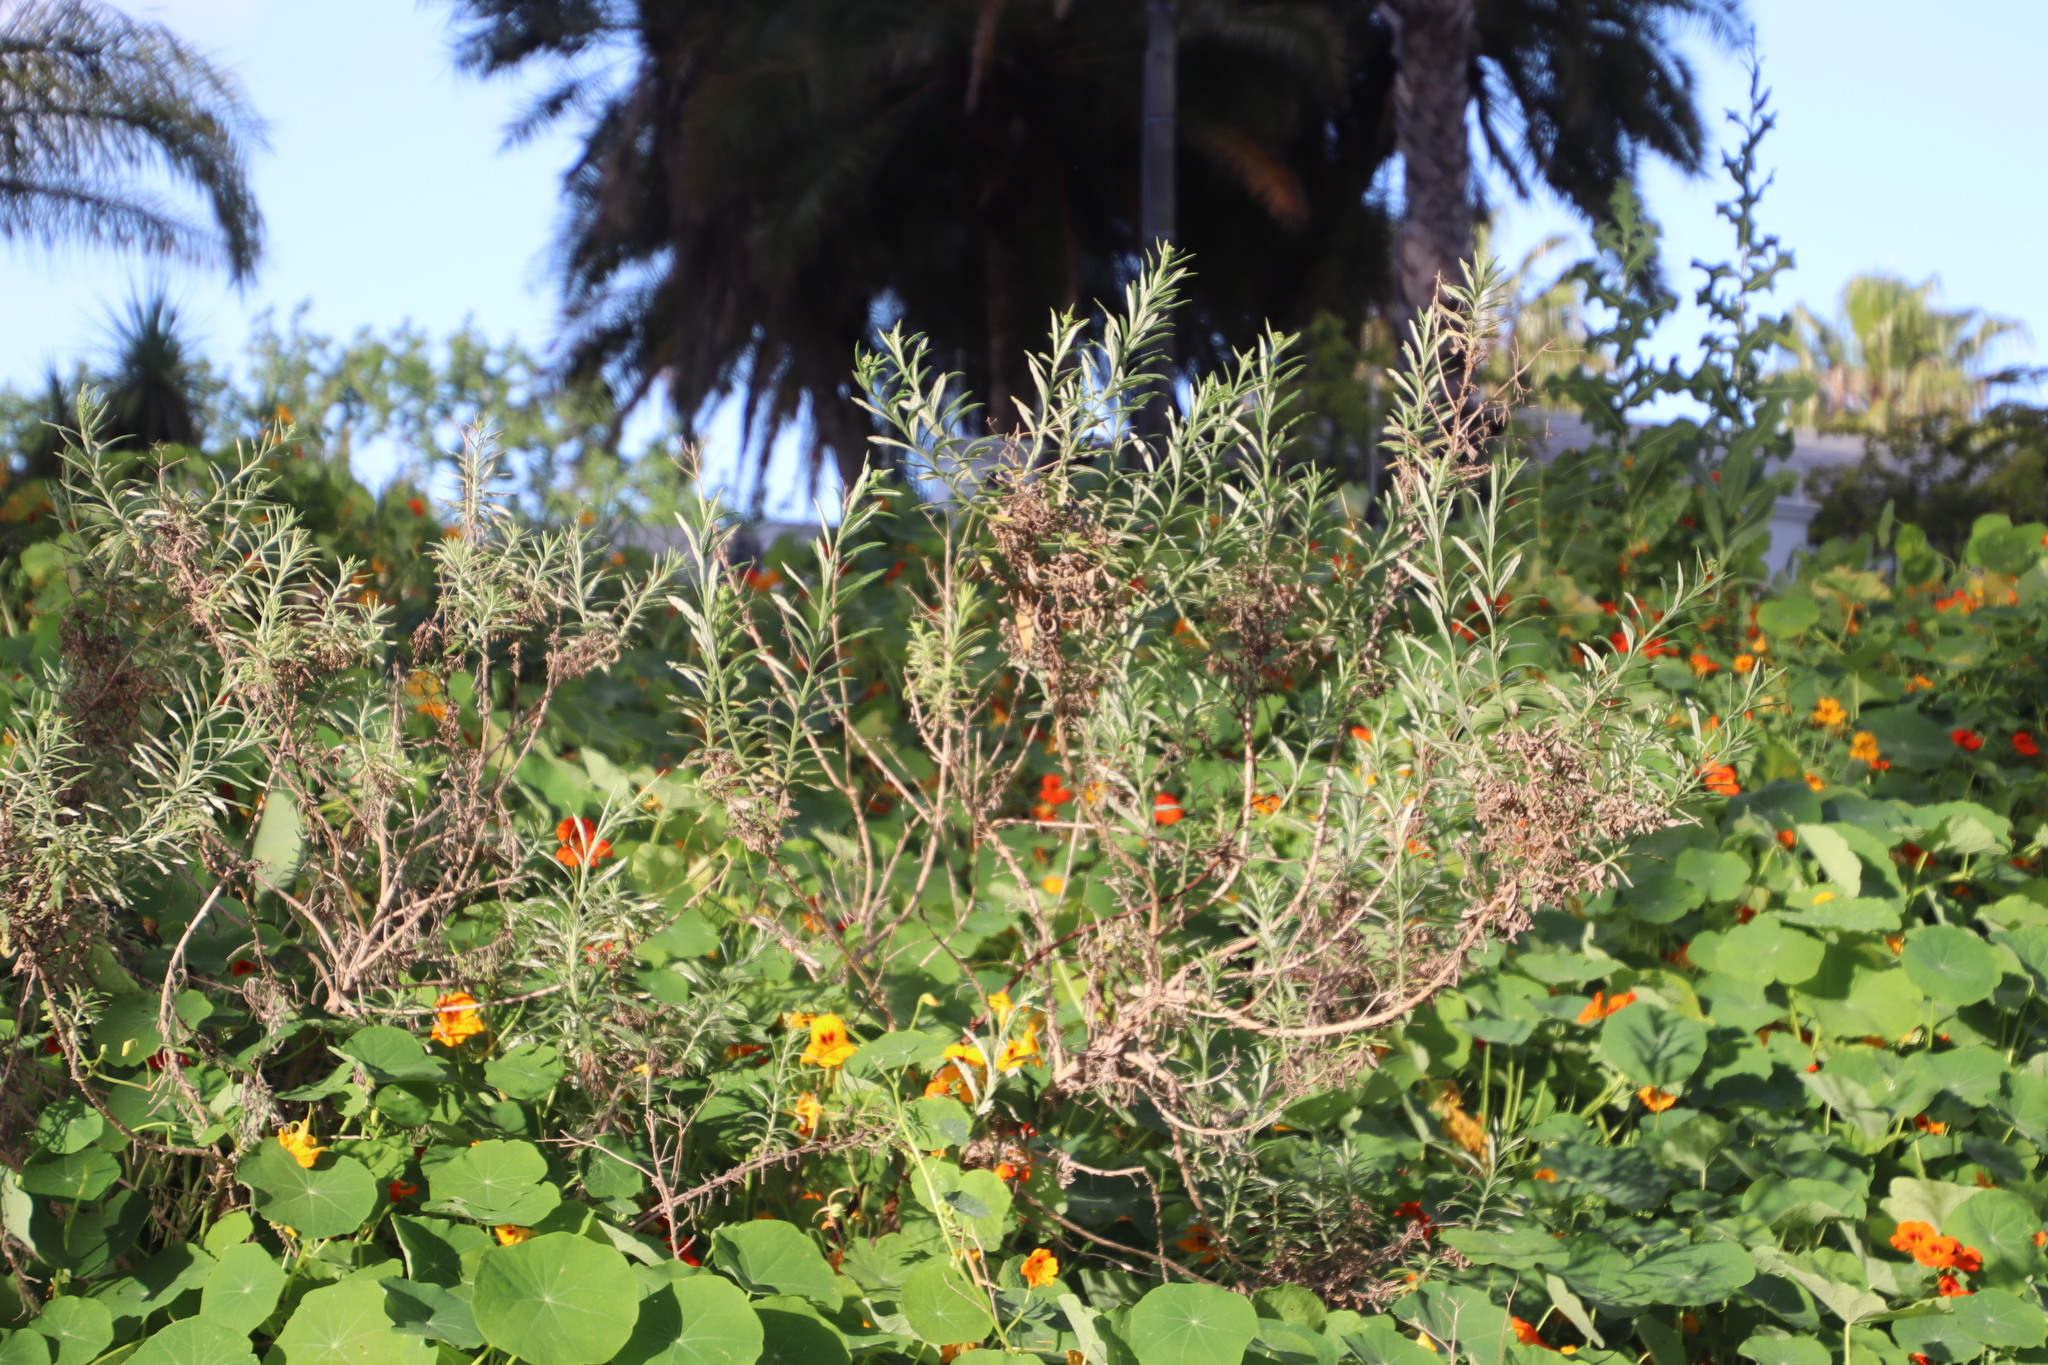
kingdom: Plantae
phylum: Tracheophyta
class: Magnoliopsida
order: Asterales
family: Asteraceae
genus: Senecio
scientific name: Senecio pterophorus
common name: Shoddy ragwort
